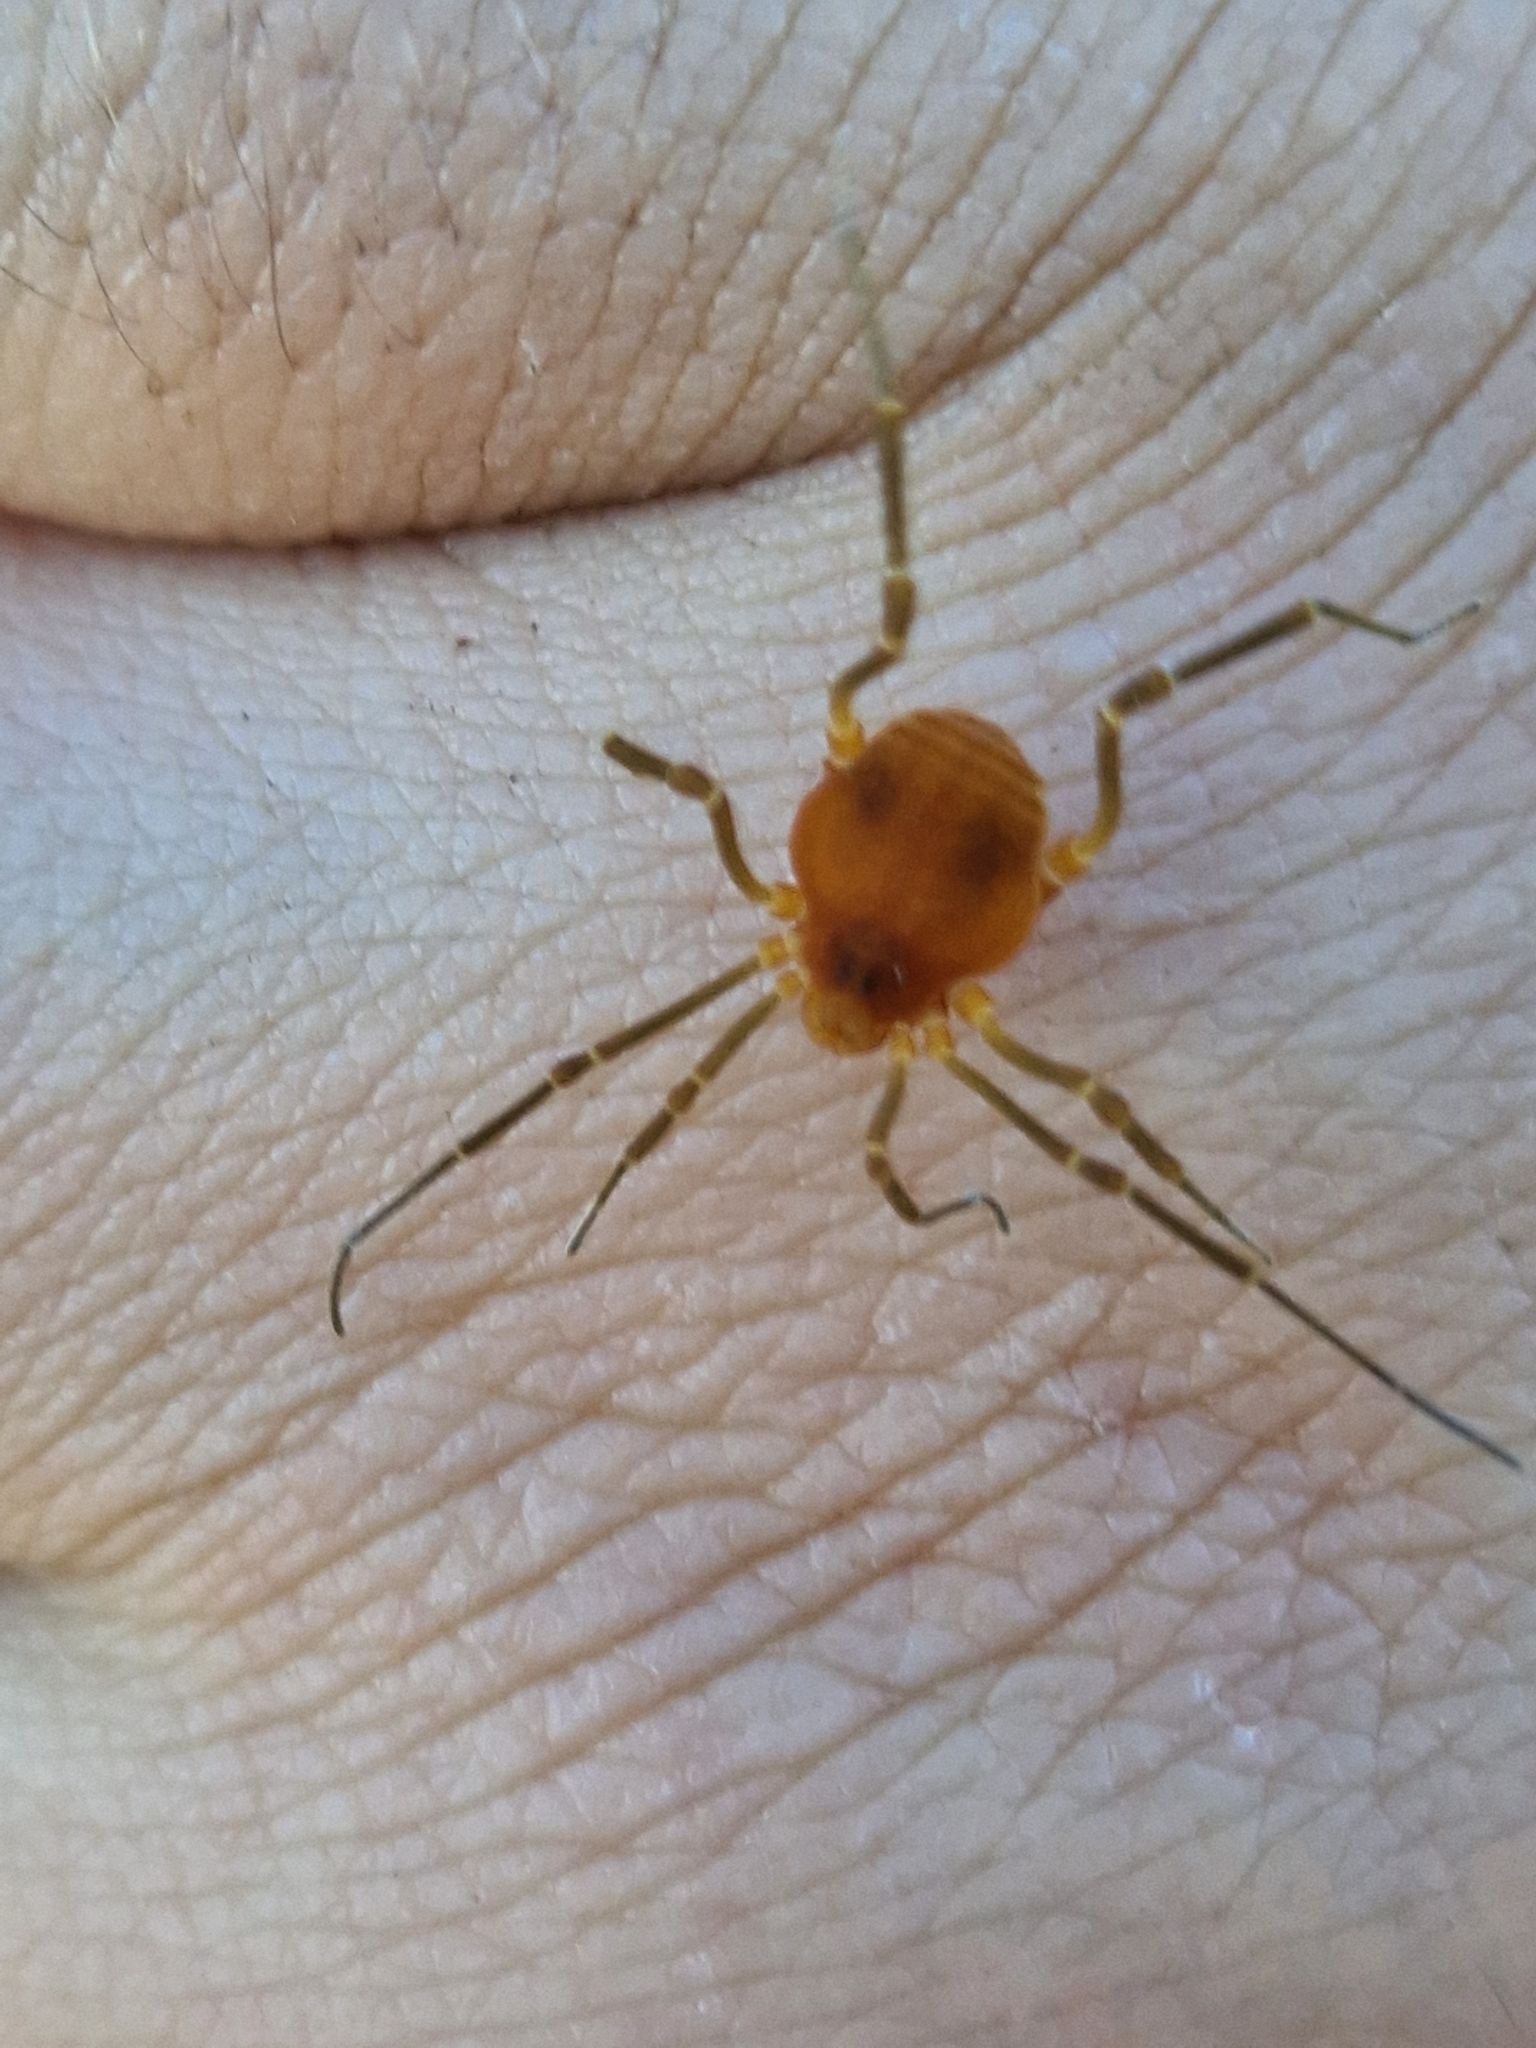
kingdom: Animalia
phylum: Arthropoda
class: Arachnida
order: Opiliones
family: Cosmetidae
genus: Libitioides
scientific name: Libitioides sayi
